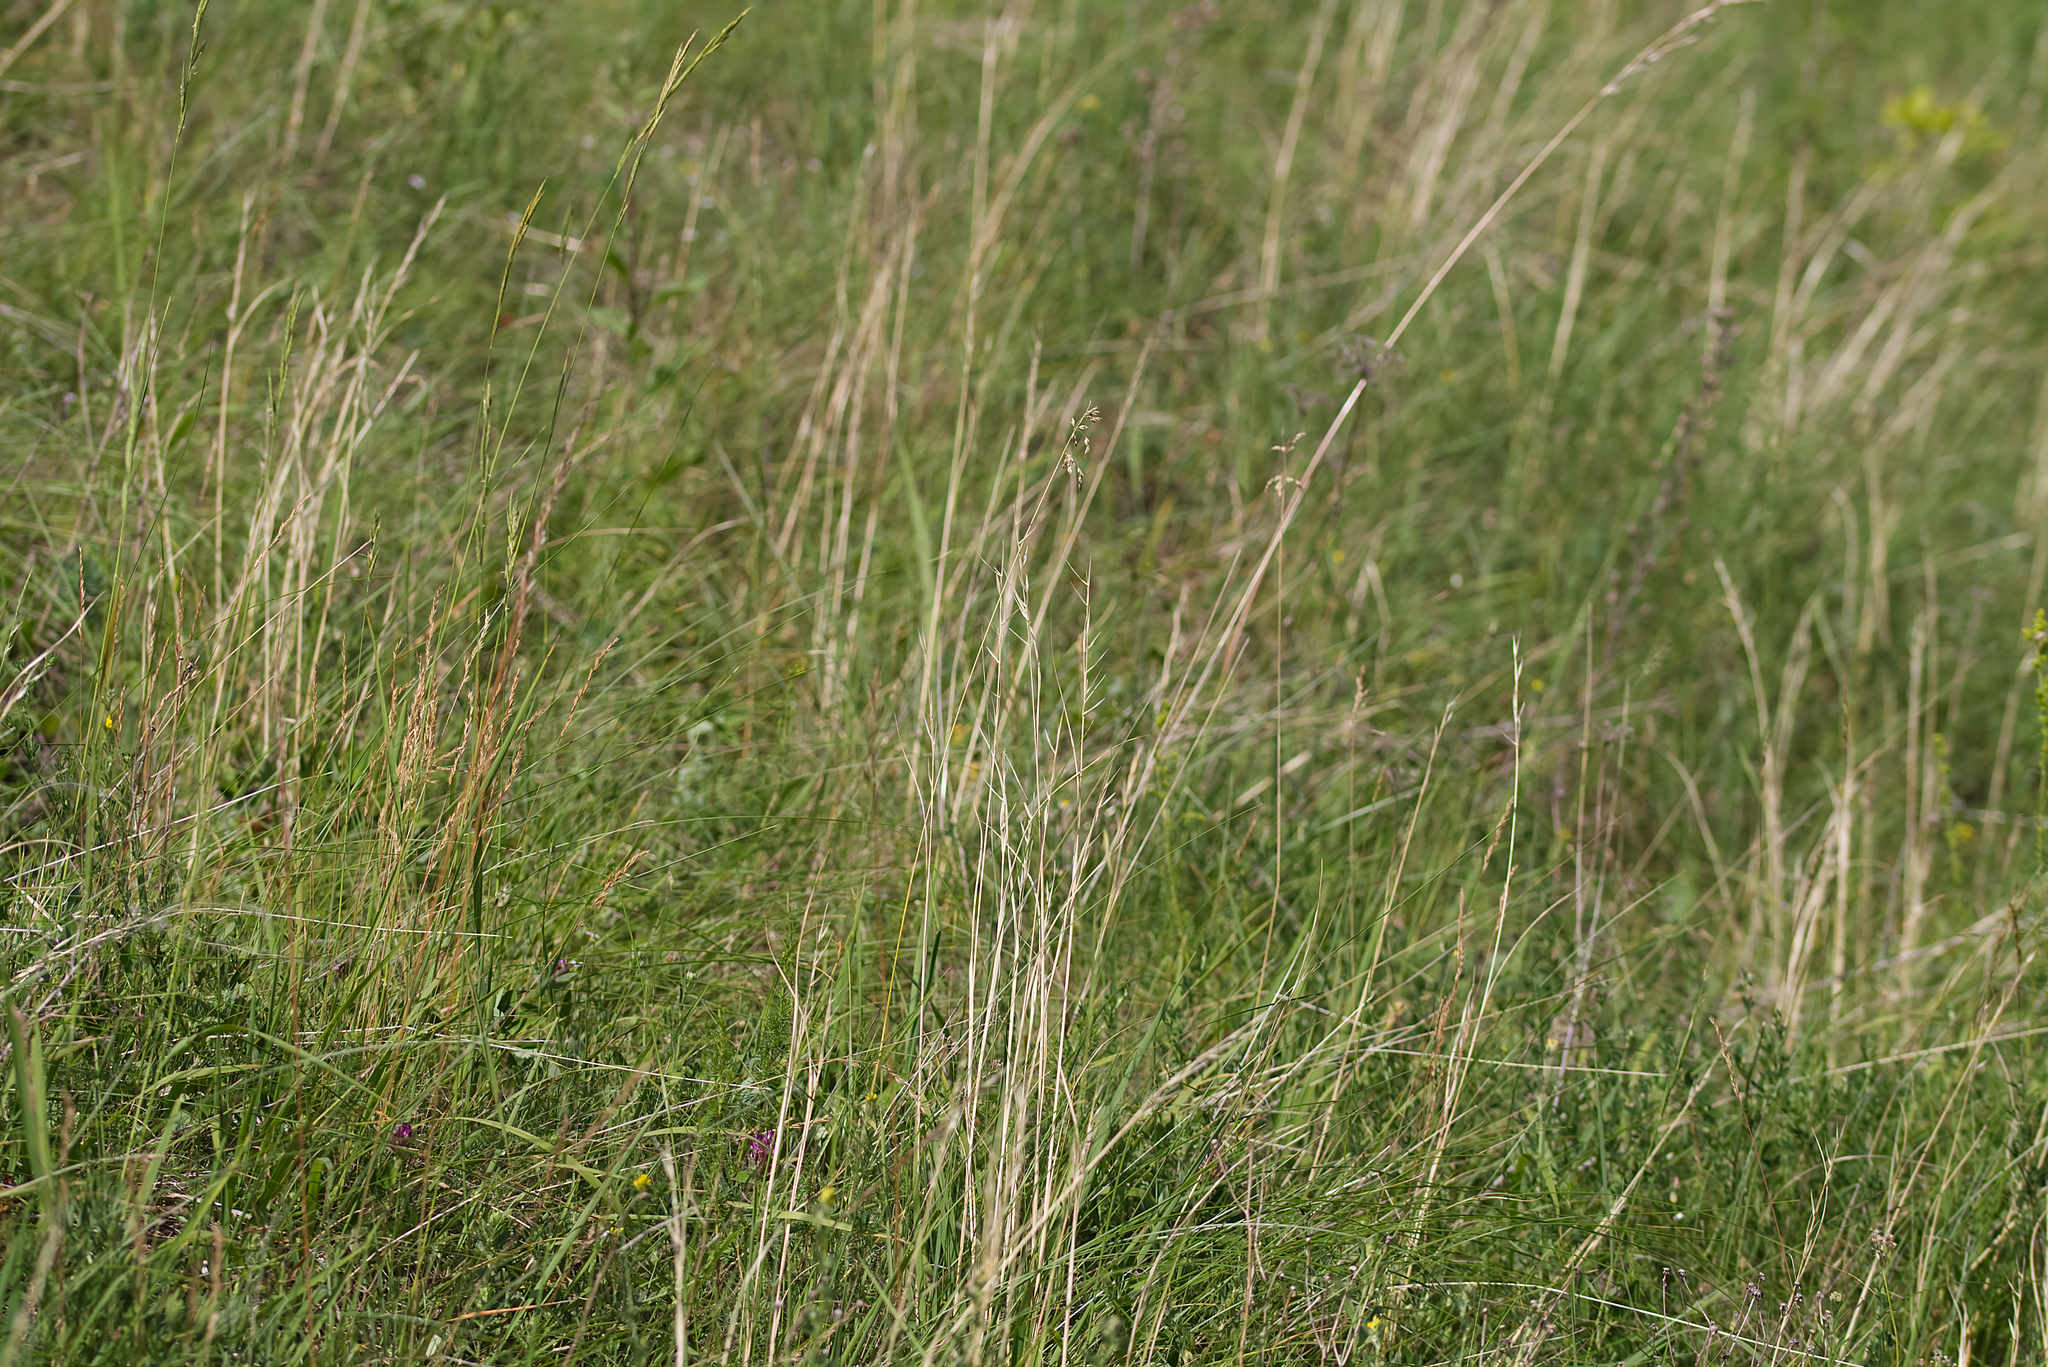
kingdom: Plantae
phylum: Tracheophyta
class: Liliopsida
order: Poales
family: Poaceae
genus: Stipa
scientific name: Stipa pennata
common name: European feather grass
